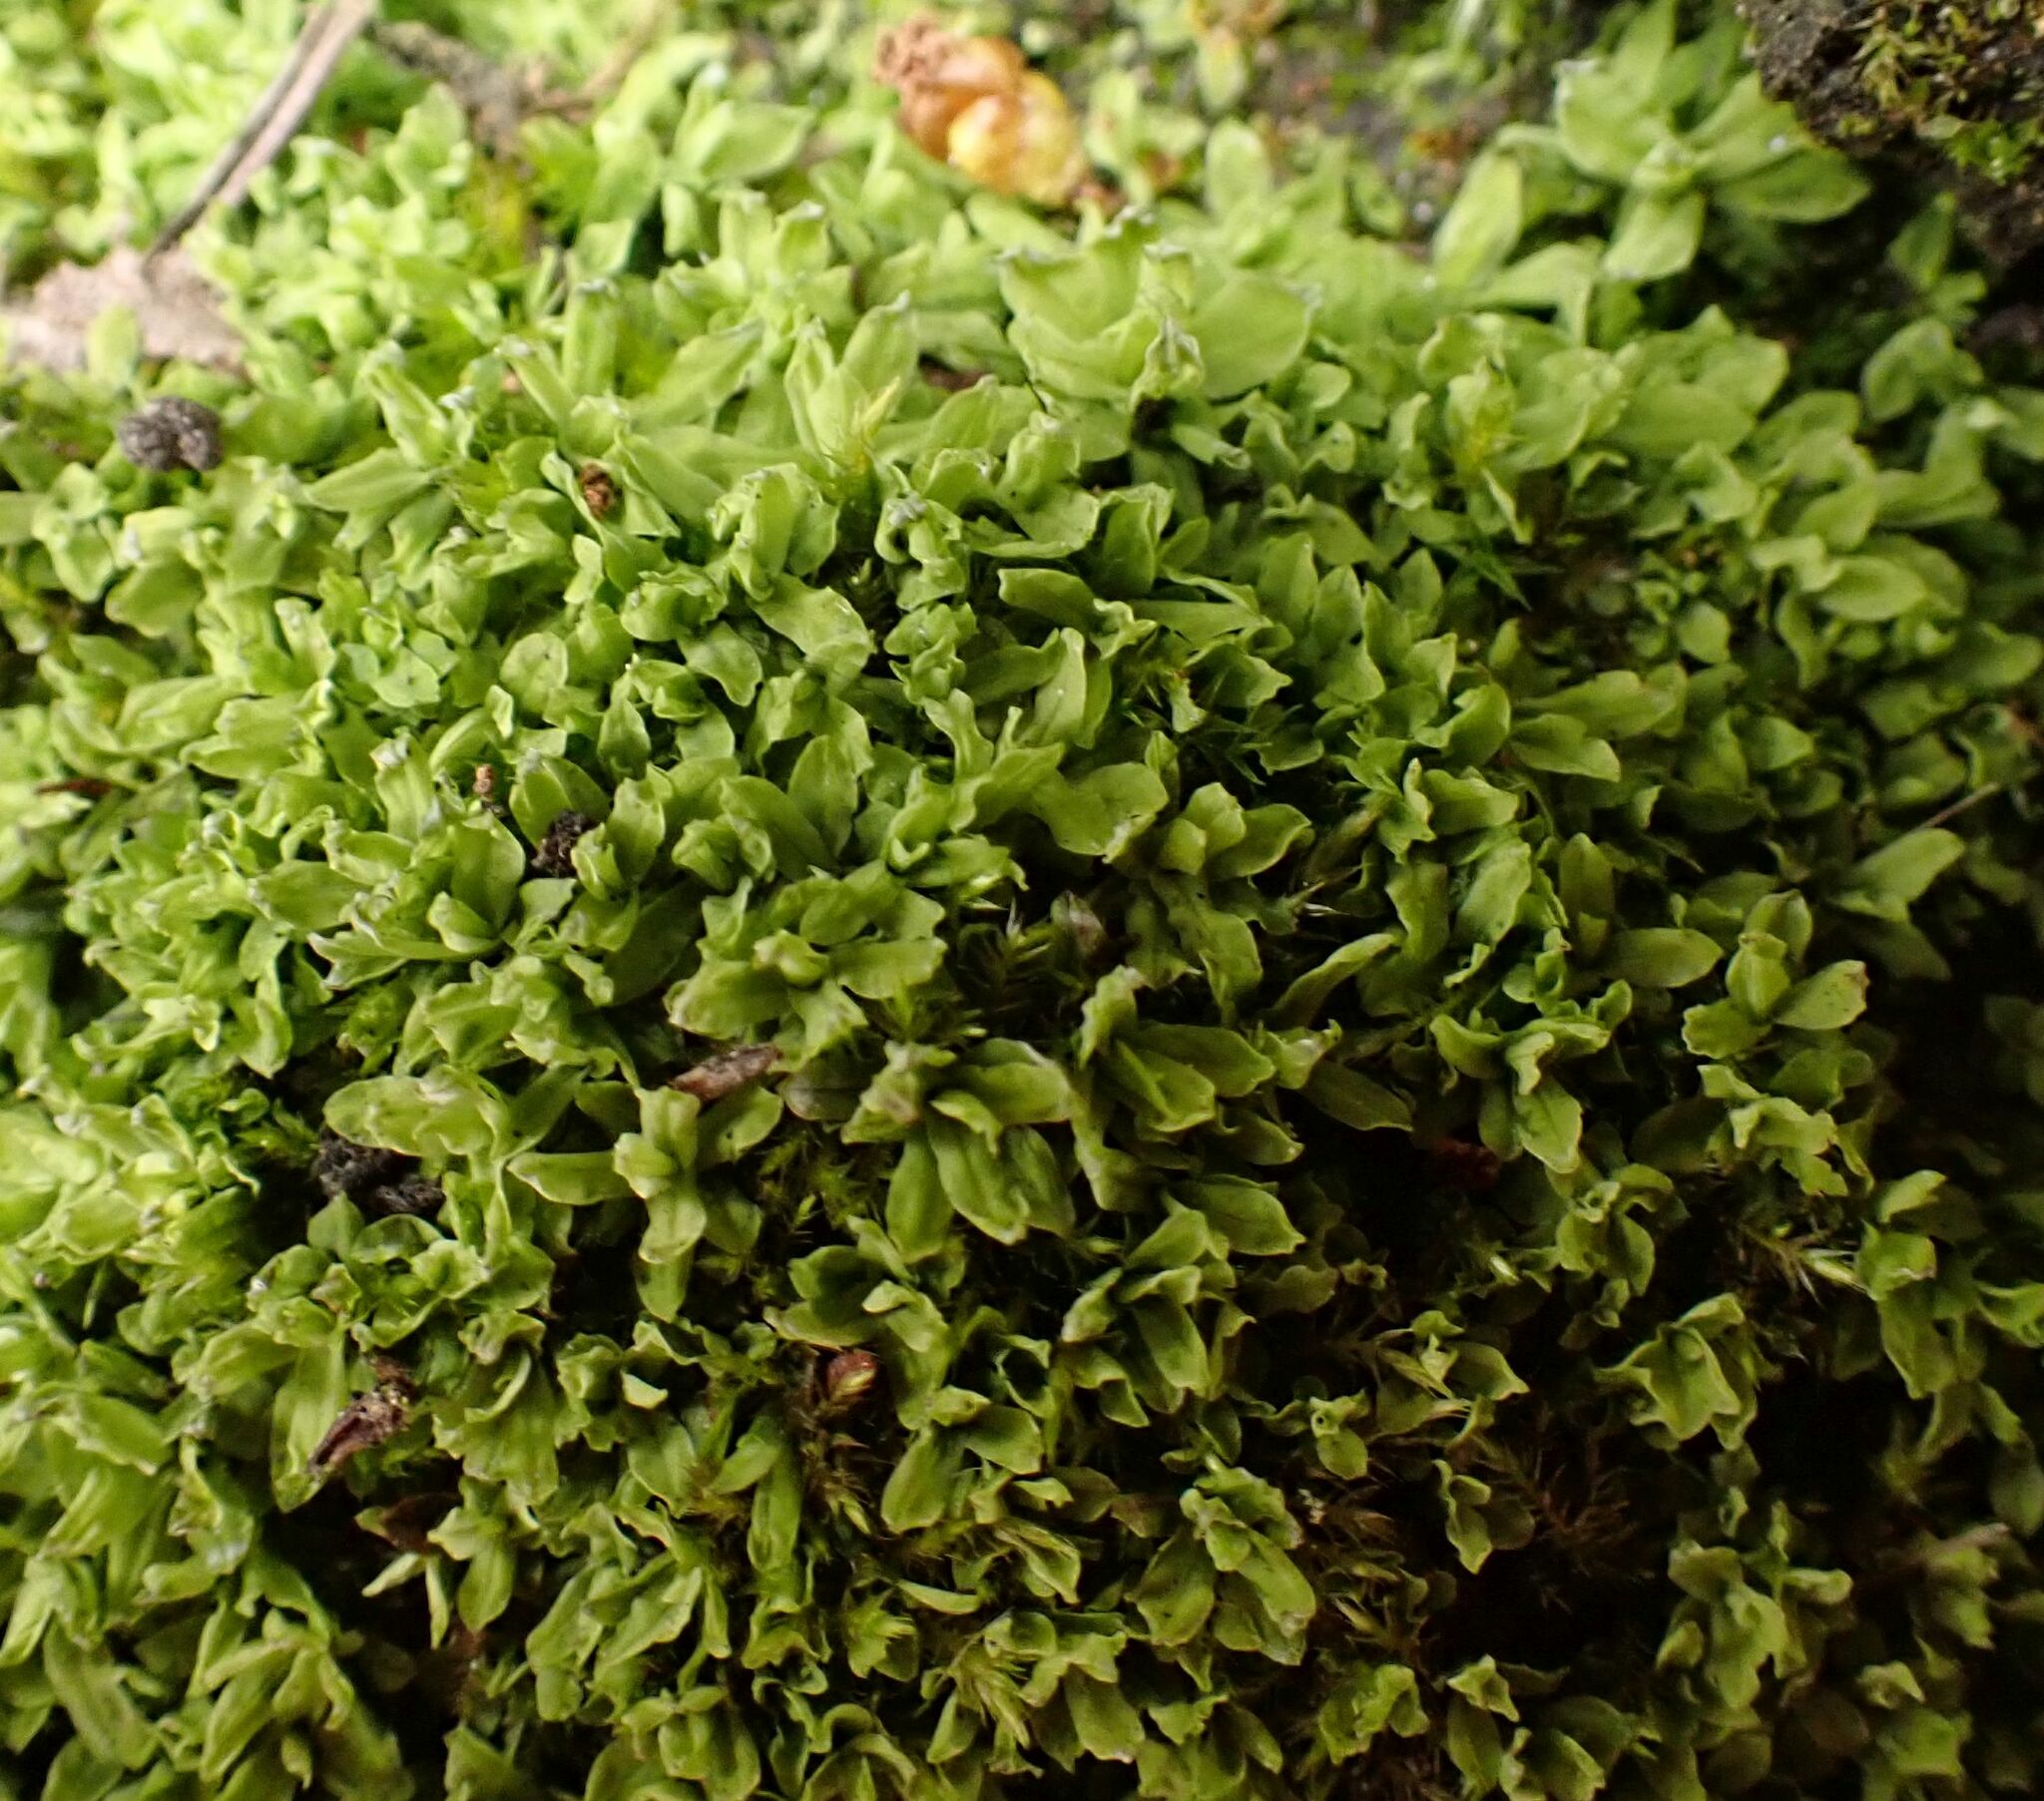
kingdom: Plantae
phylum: Bryophyta
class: Bryopsida
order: Encalyptales
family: Encalyptaceae
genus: Encalypta
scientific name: Encalypta streptocarpa
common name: Spiral extinguisher-moss
